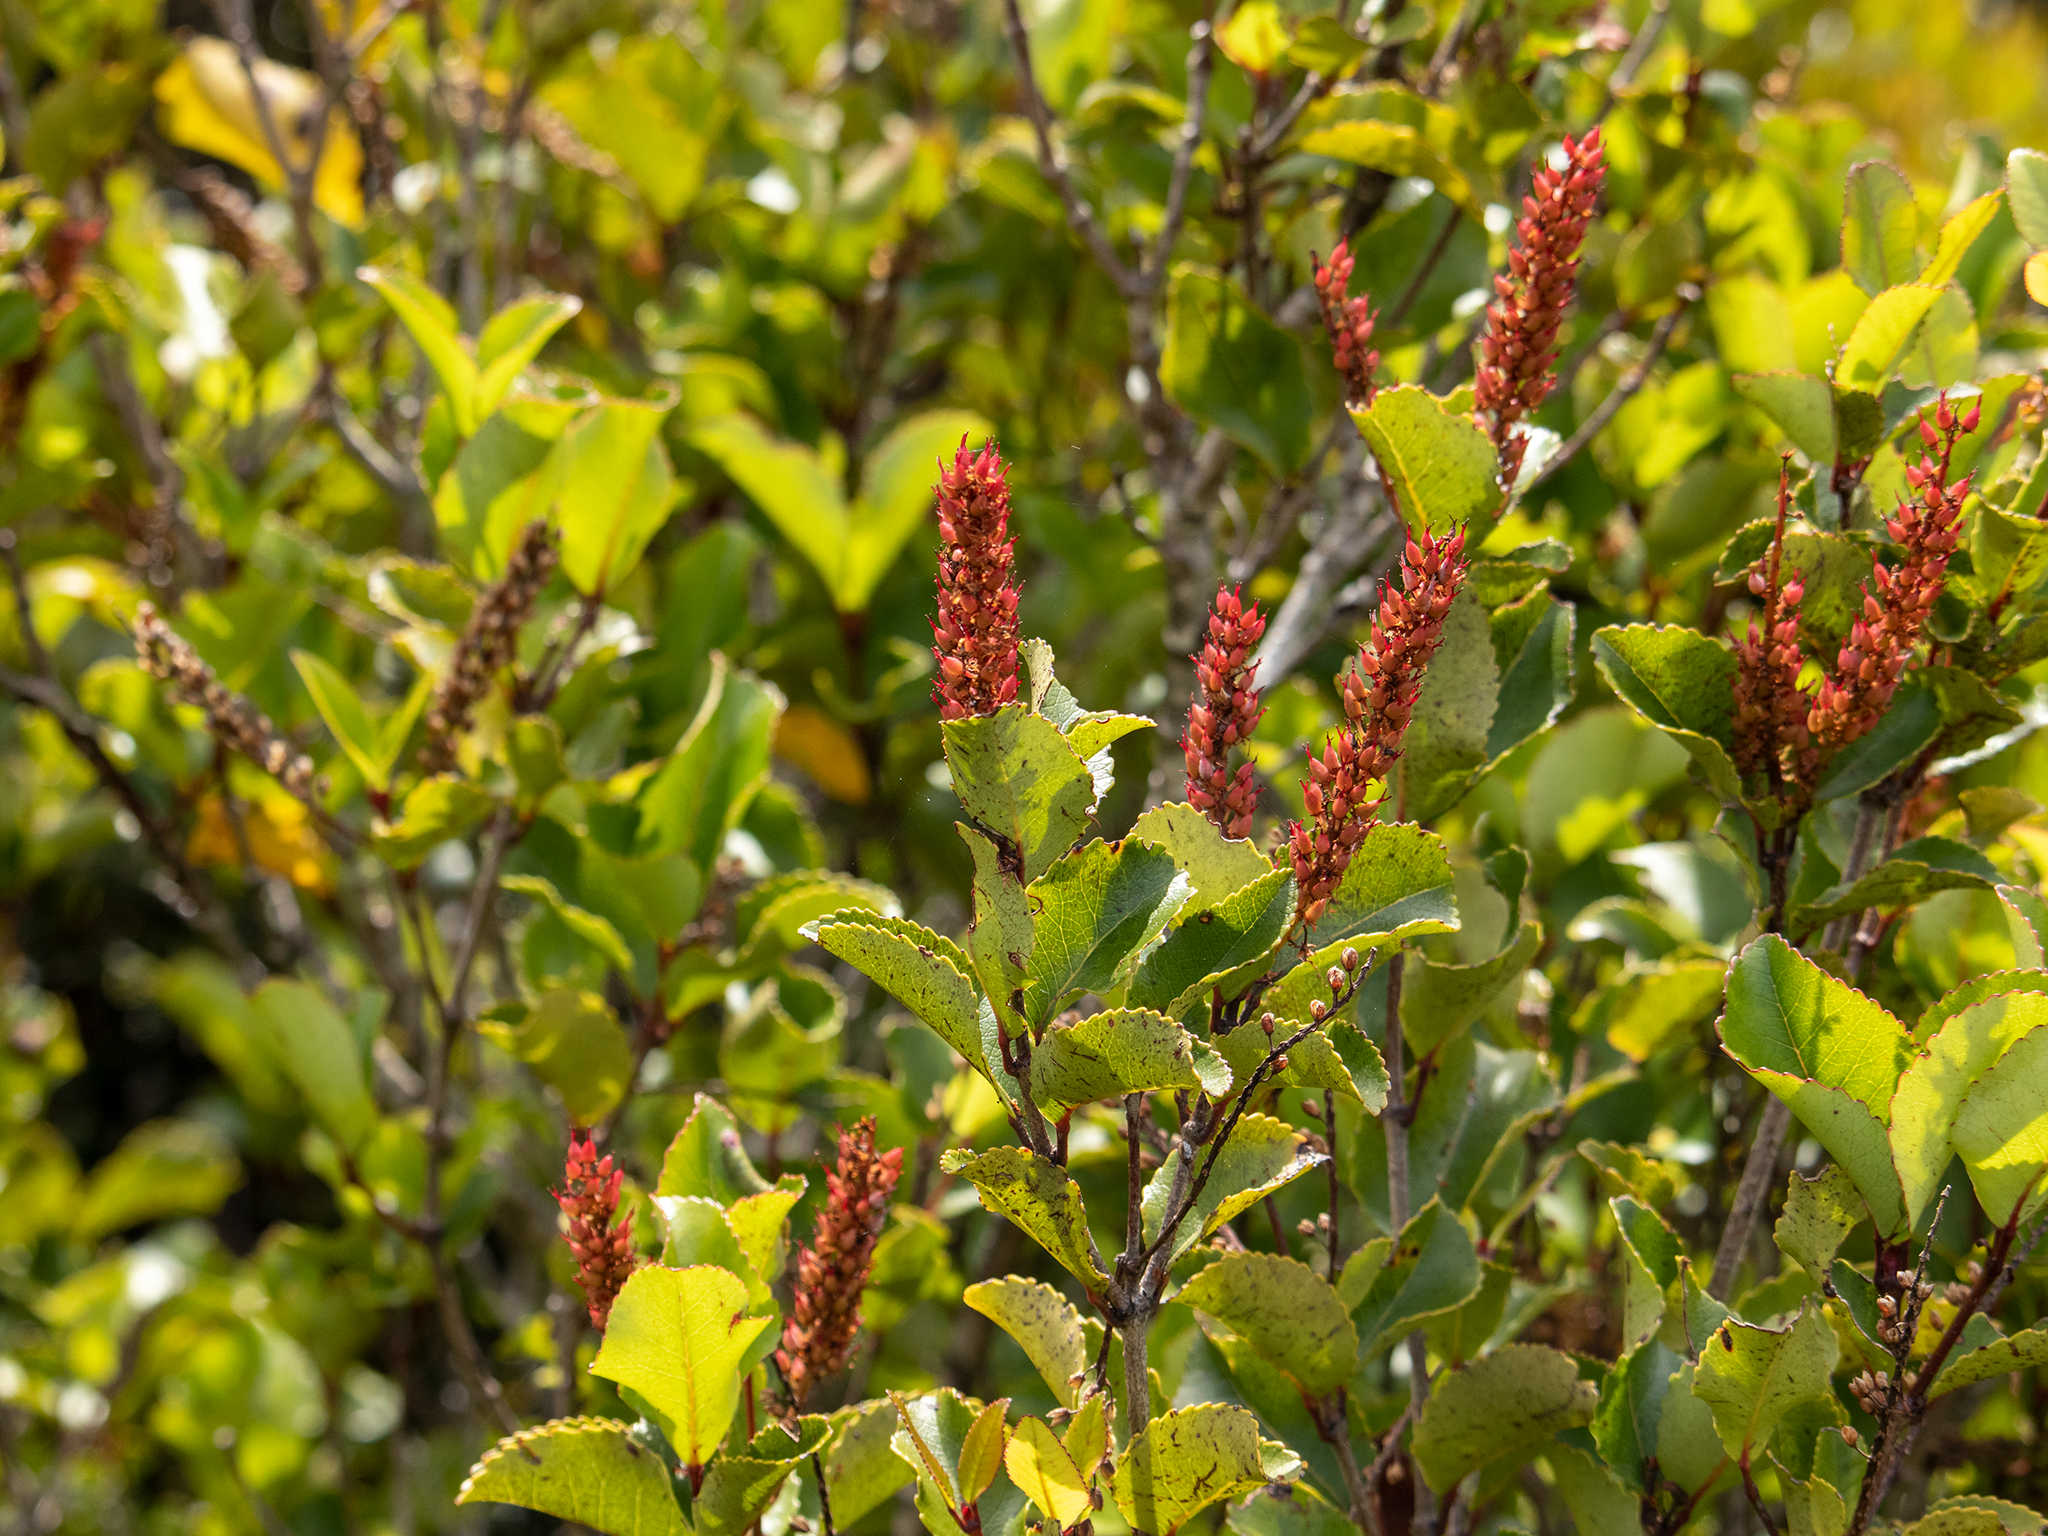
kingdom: Plantae
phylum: Tracheophyta
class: Magnoliopsida
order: Oxalidales
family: Cunoniaceae
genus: Pterophylla
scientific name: Pterophylla racemosa
